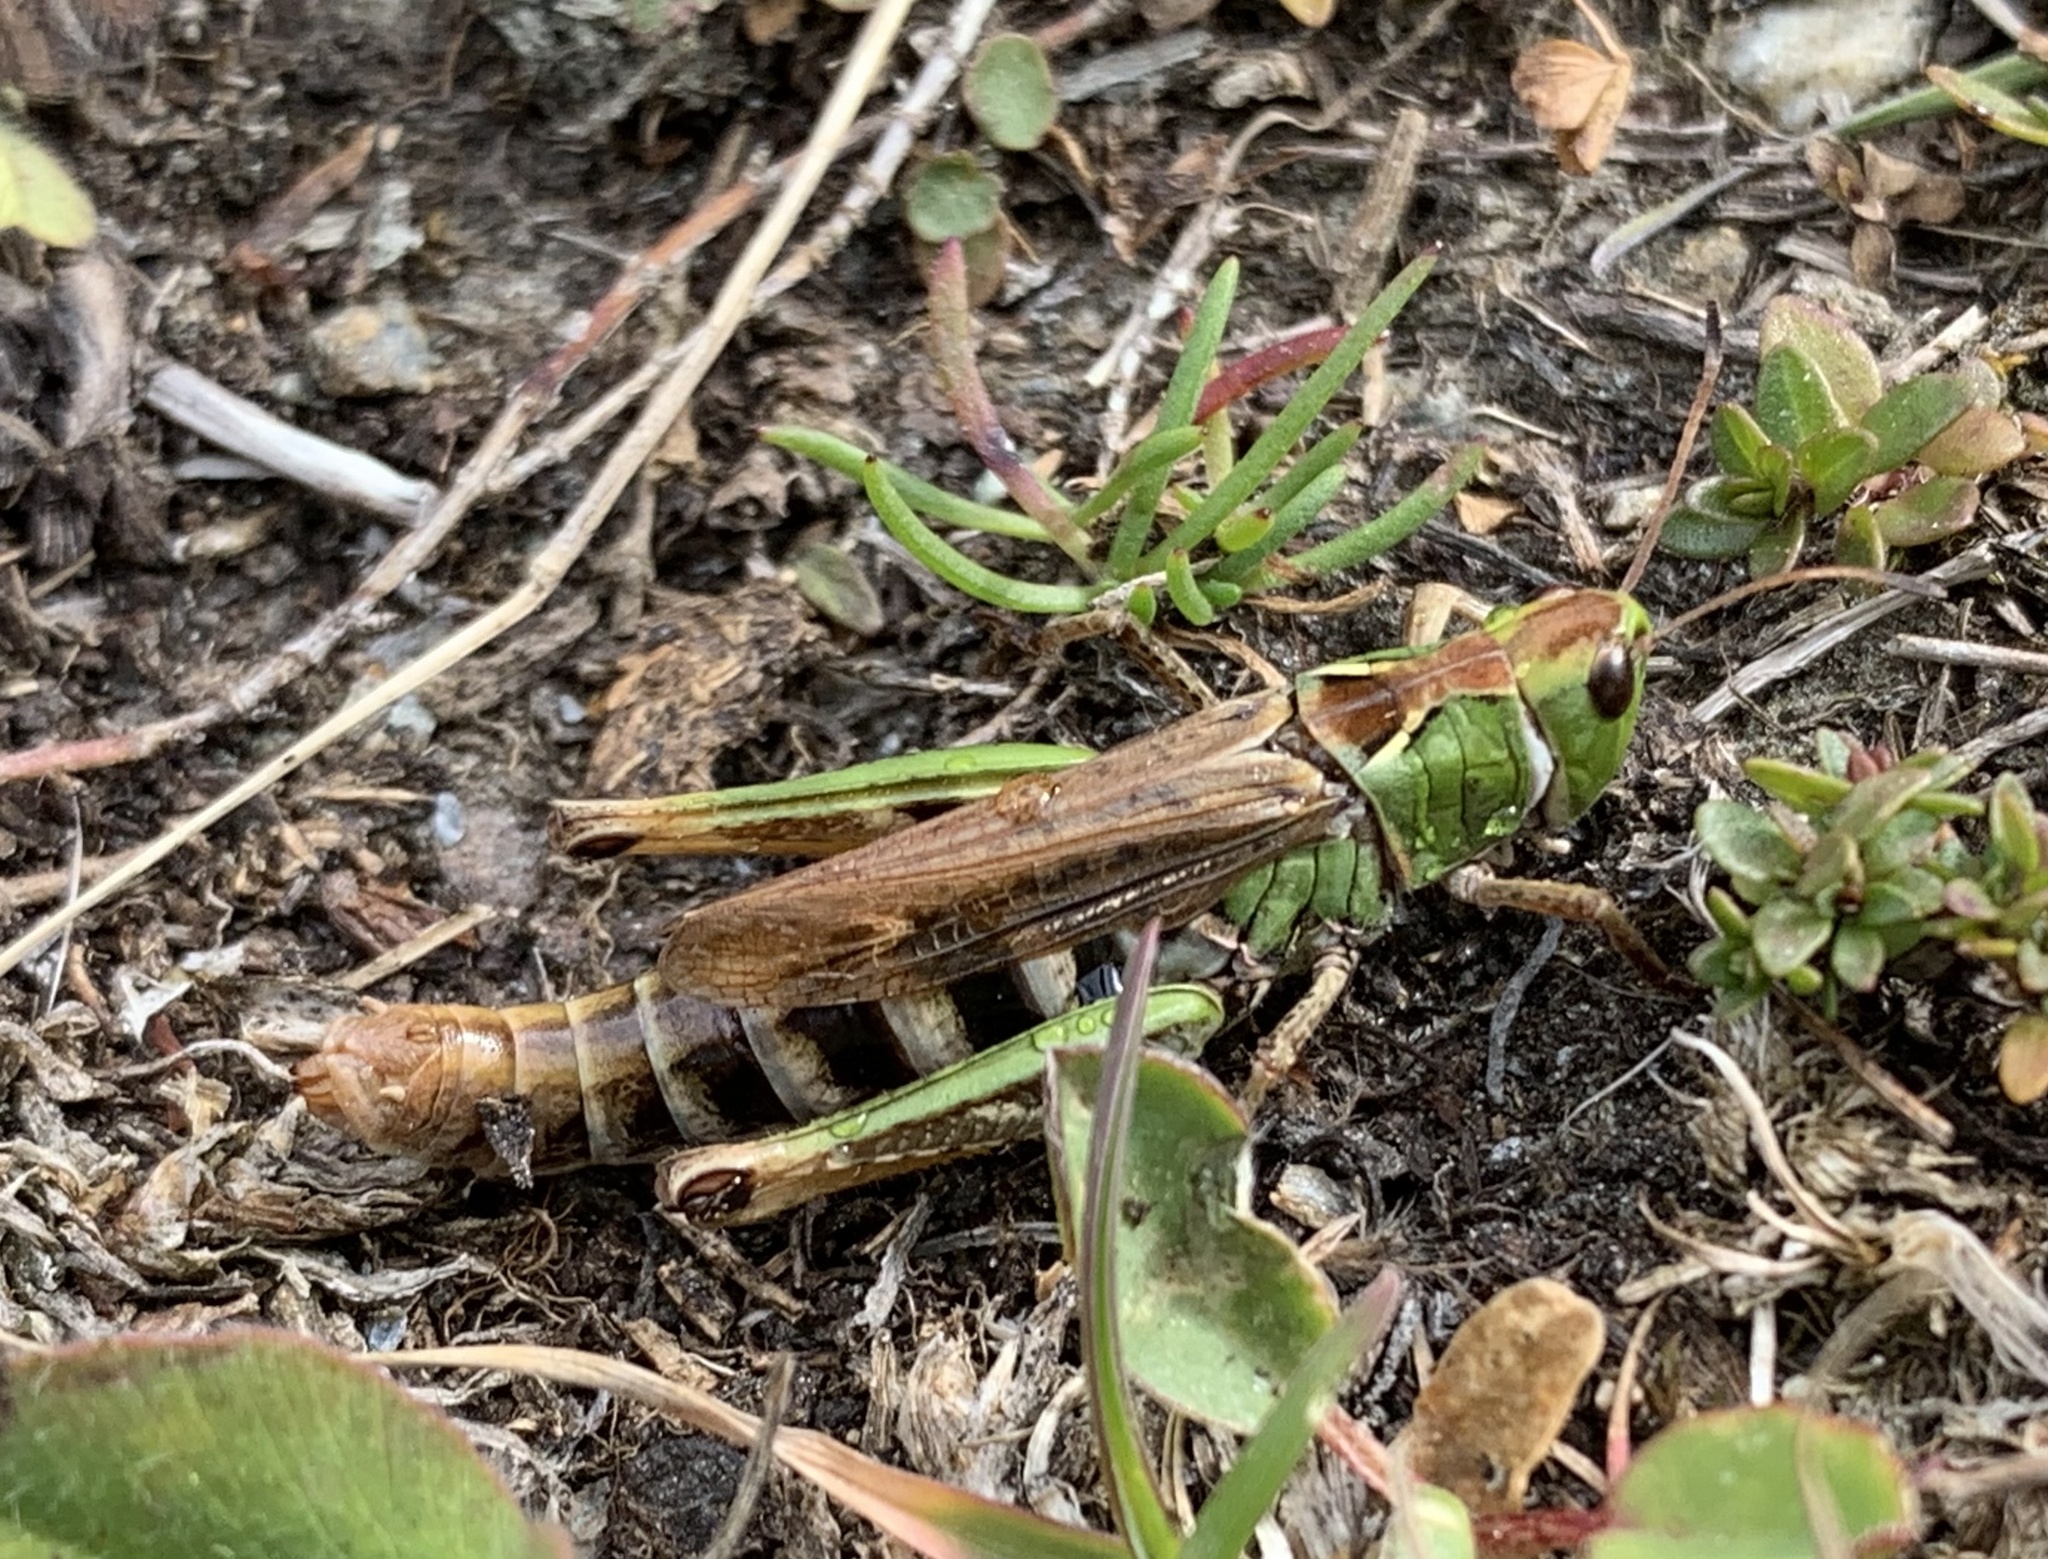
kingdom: Animalia
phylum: Arthropoda
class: Insecta
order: Orthoptera
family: Acrididae
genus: Gomphocerus
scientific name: Gomphocerus sibiricus
